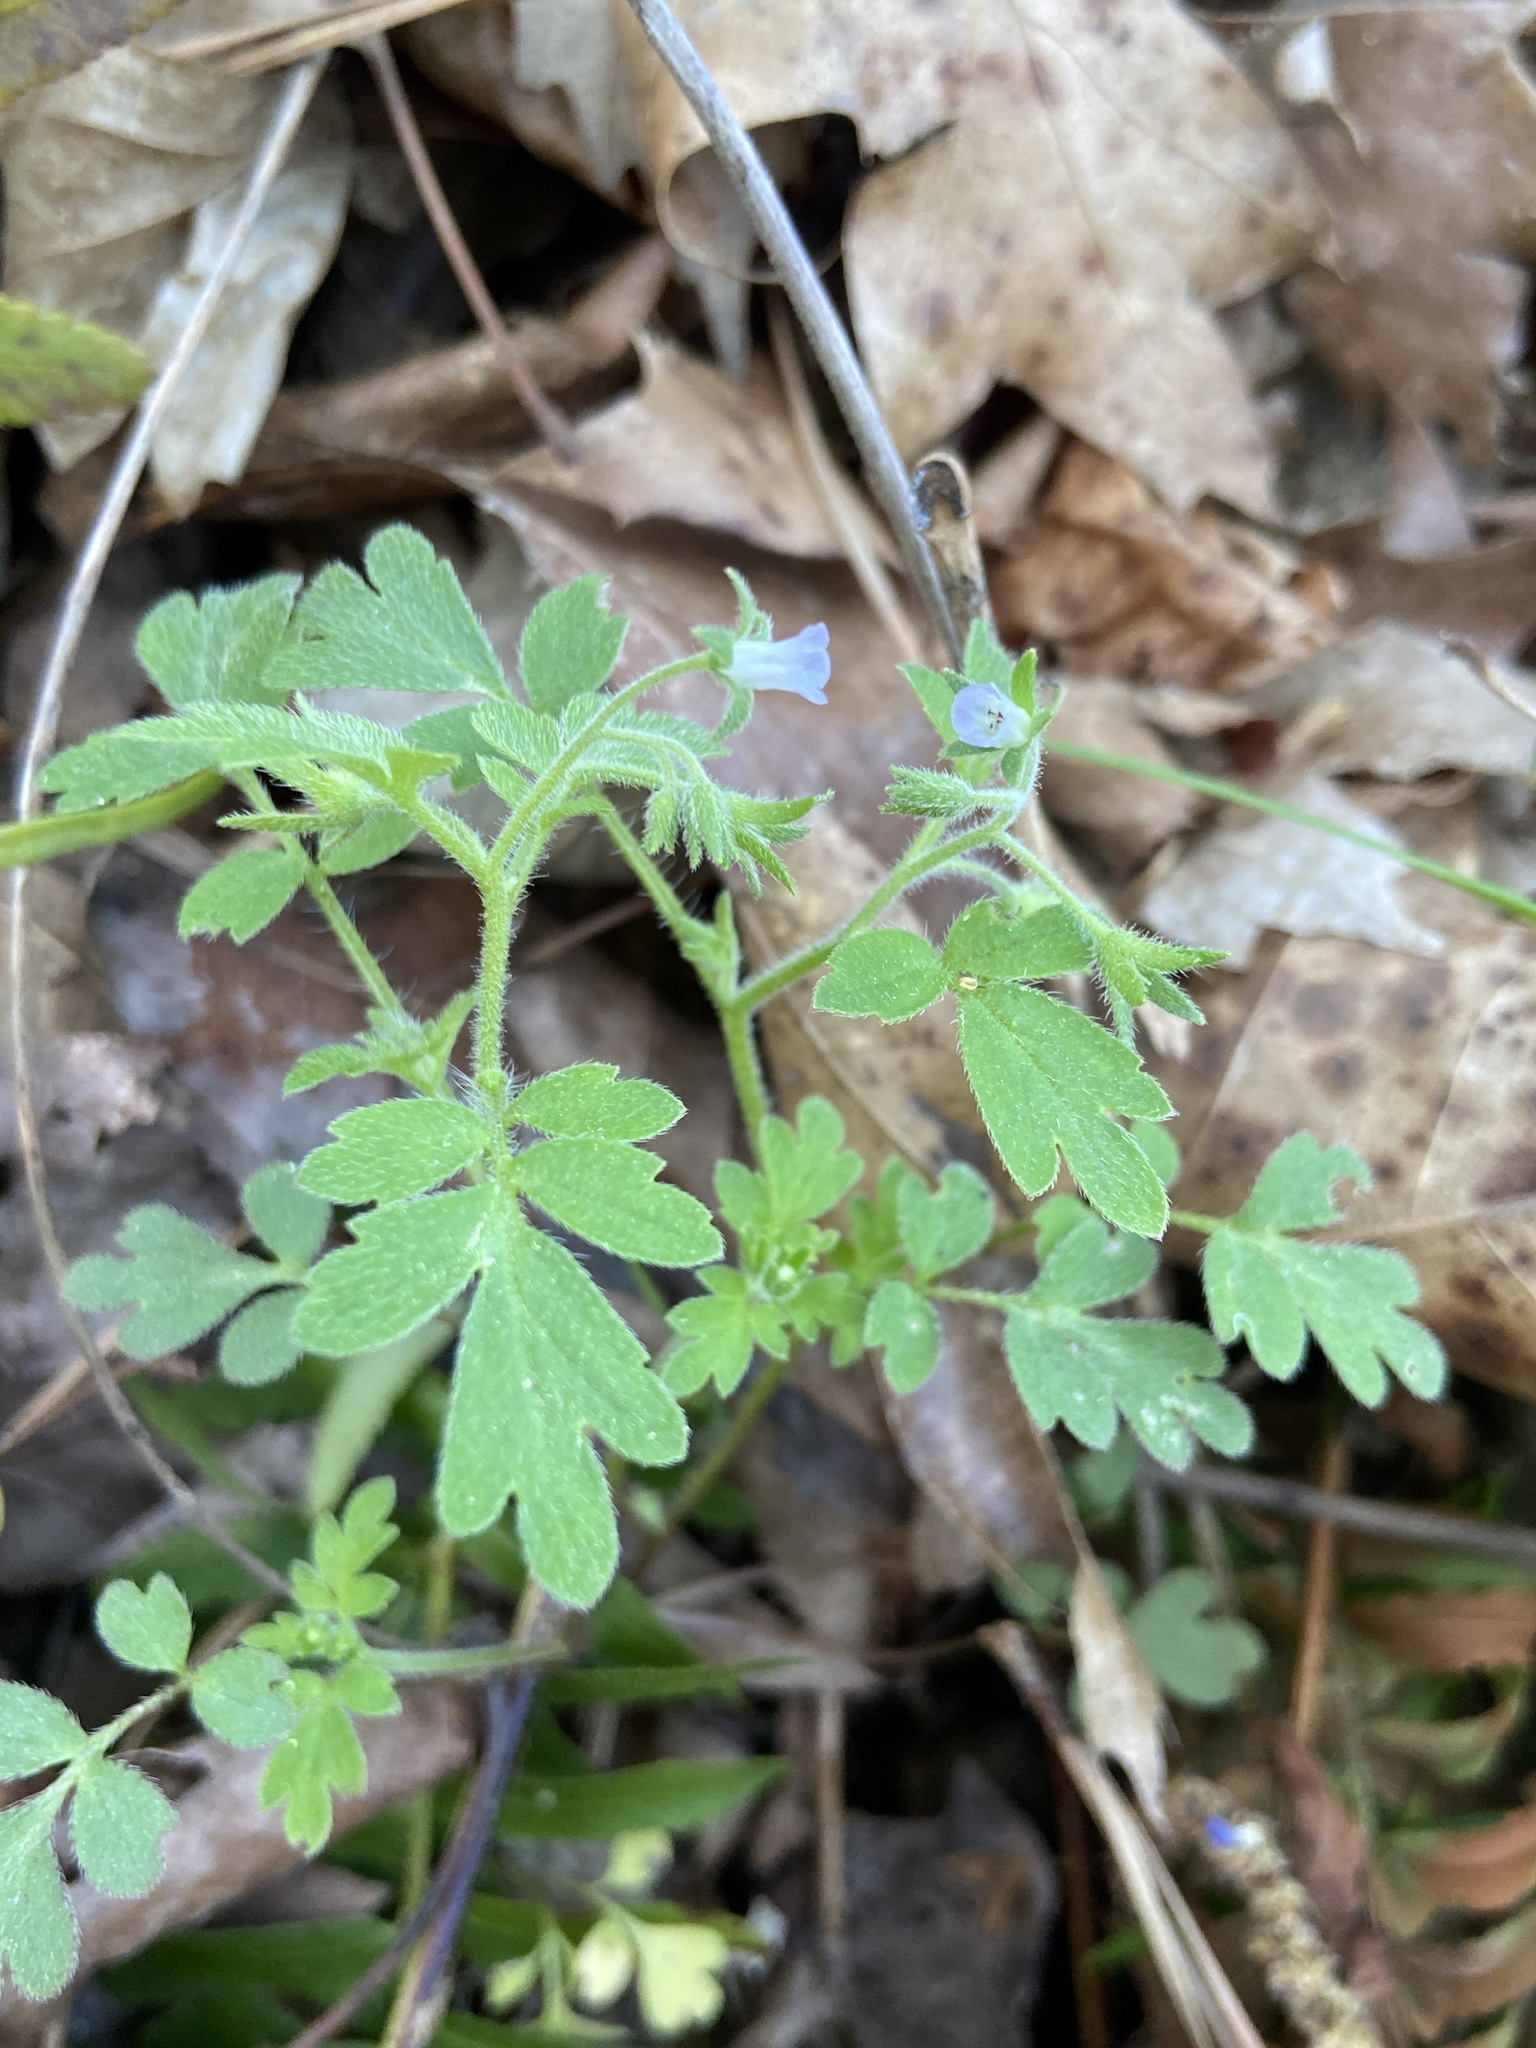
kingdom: Plantae
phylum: Tracheophyta
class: Magnoliopsida
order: Boraginales
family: Hydrophyllaceae
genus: Phacelia
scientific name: Phacelia covillei
